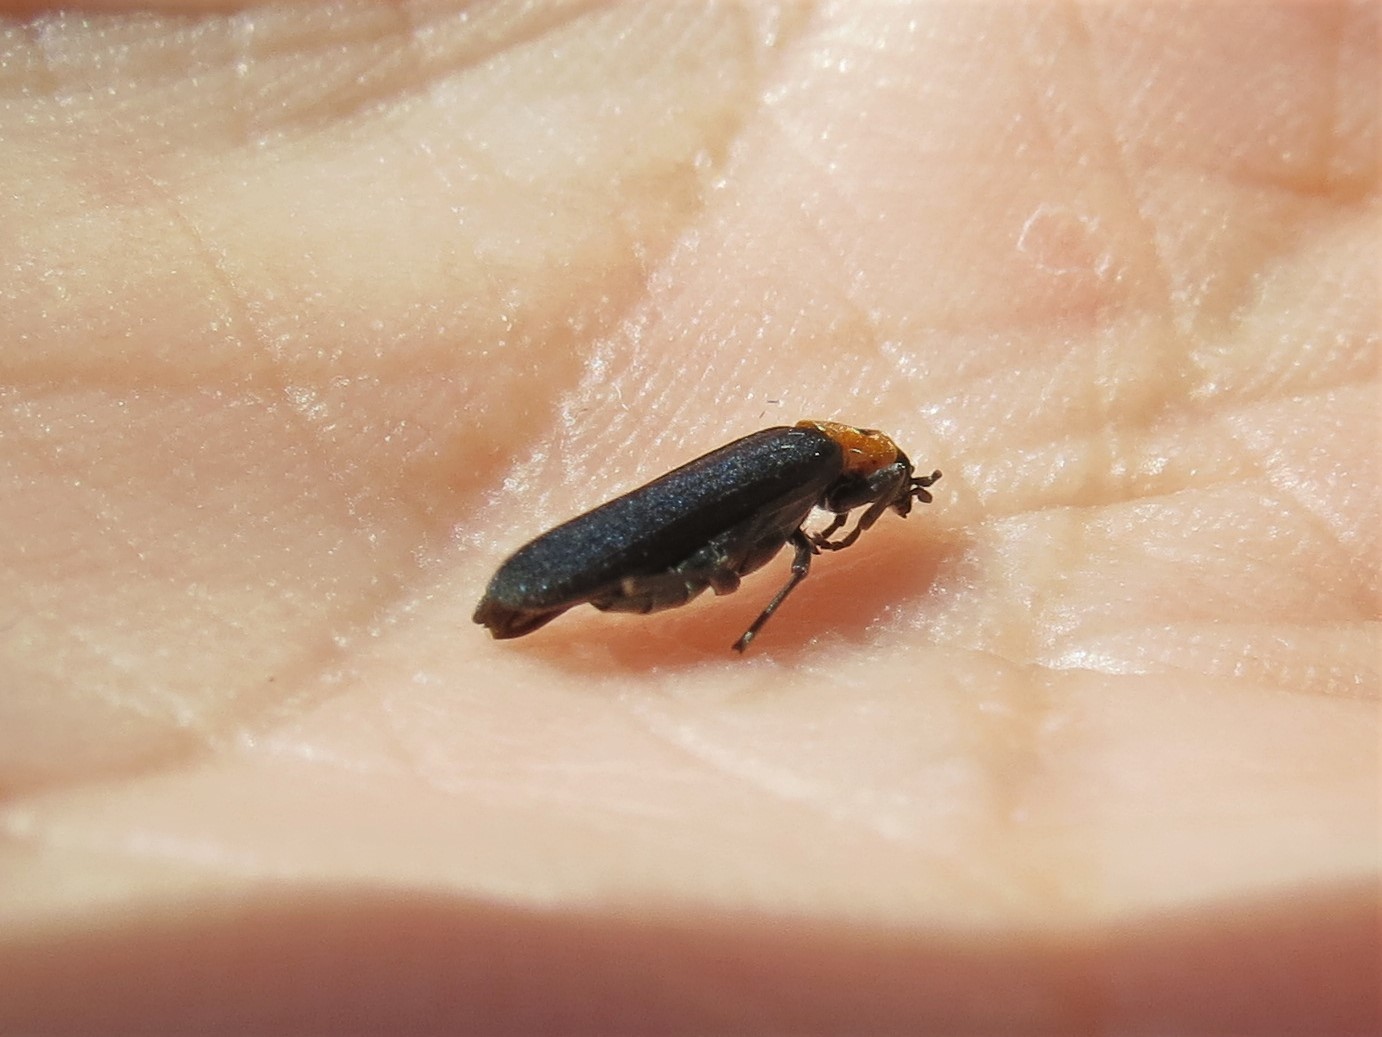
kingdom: Animalia
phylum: Arthropoda
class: Insecta
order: Coleoptera
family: Oedemeridae
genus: Ischnomera
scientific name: Ischnomera
